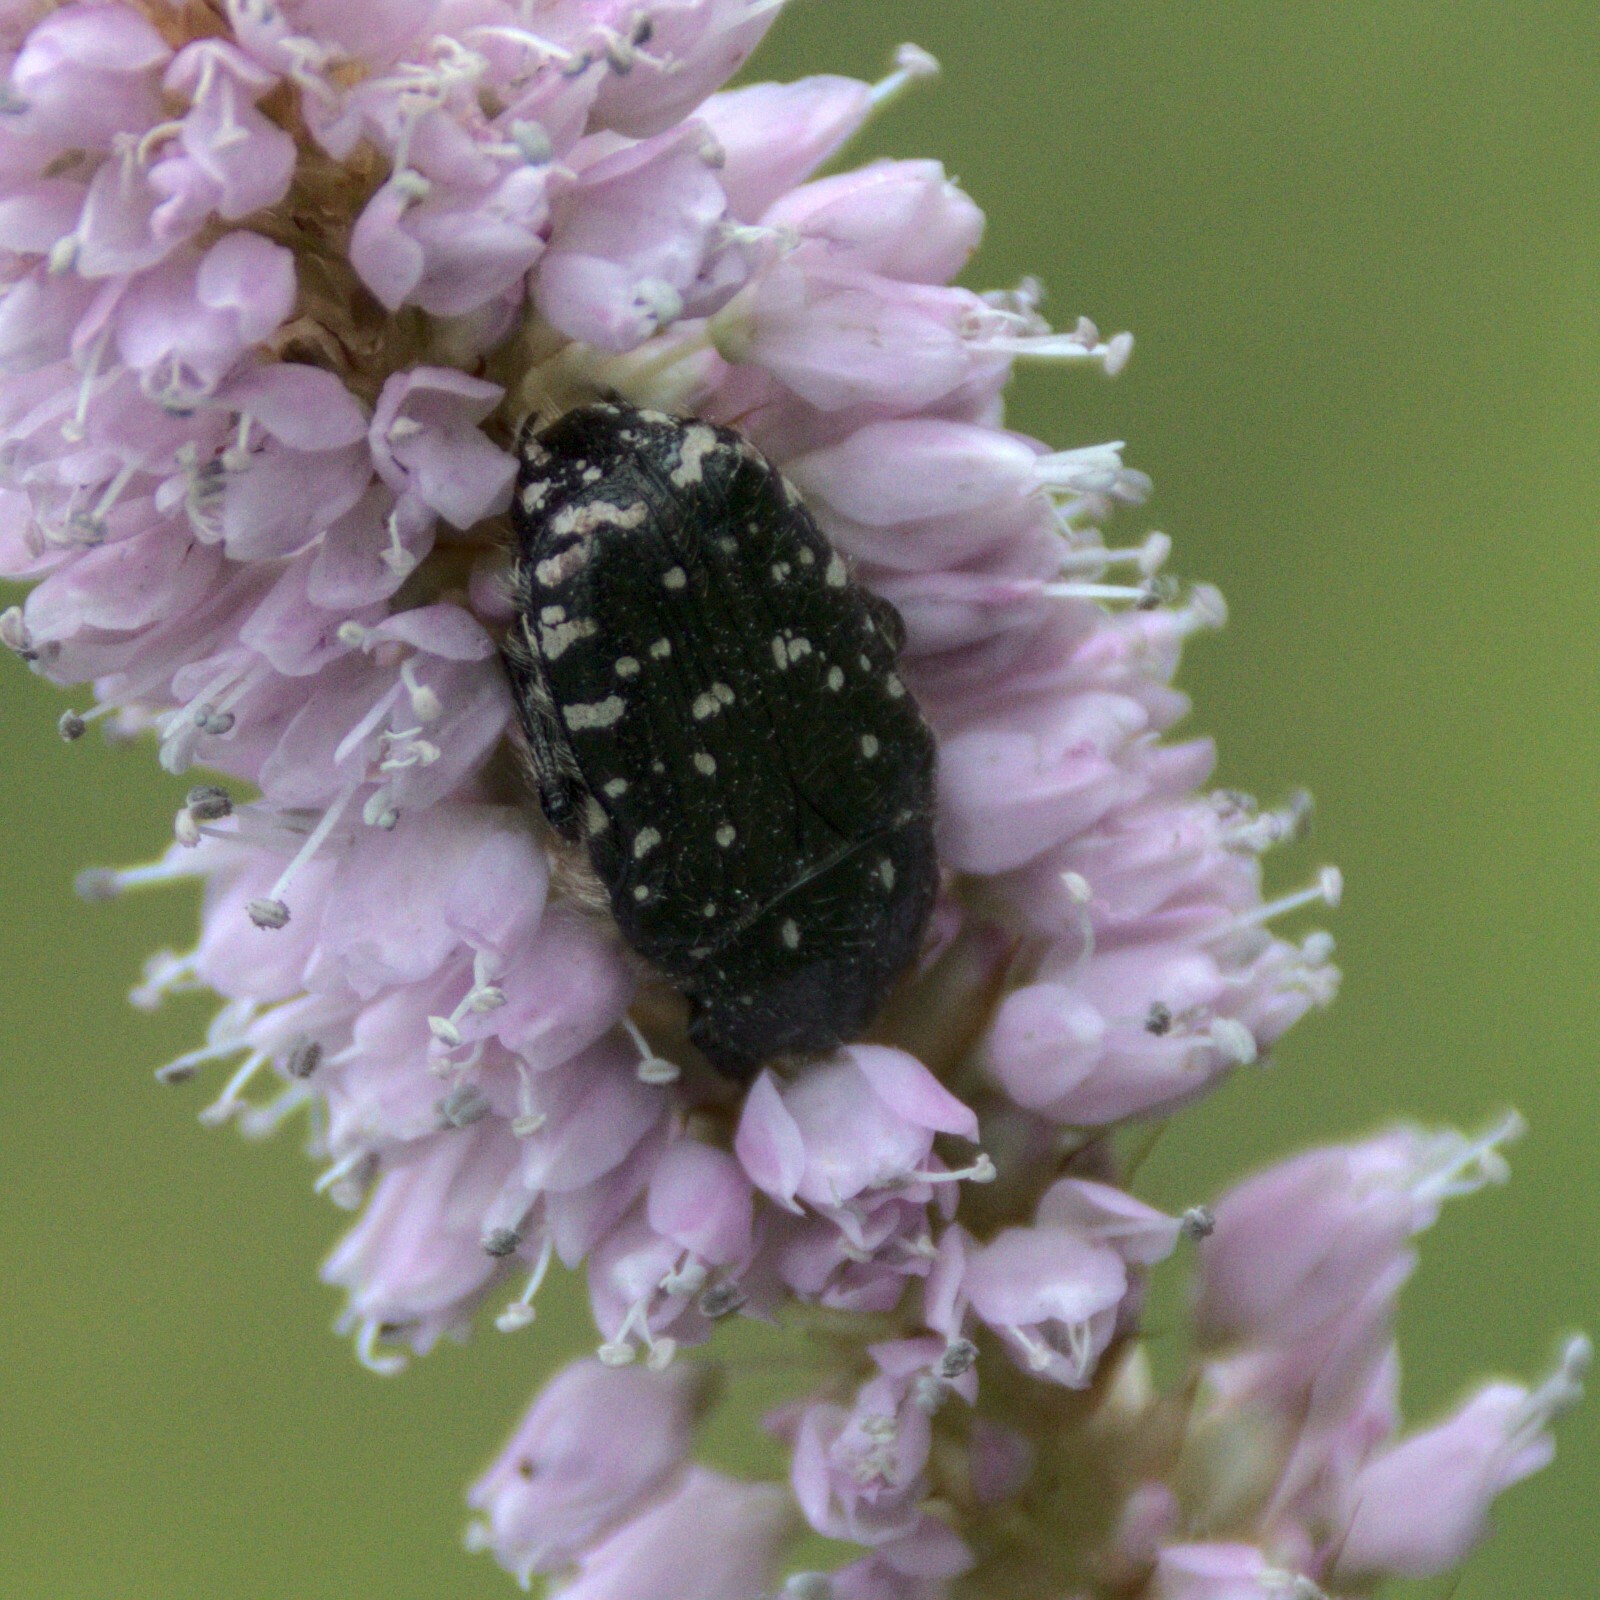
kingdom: Animalia
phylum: Arthropoda
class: Insecta
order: Coleoptera
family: Scarabaeidae
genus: Oxythyrea
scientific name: Oxythyrea funesta
